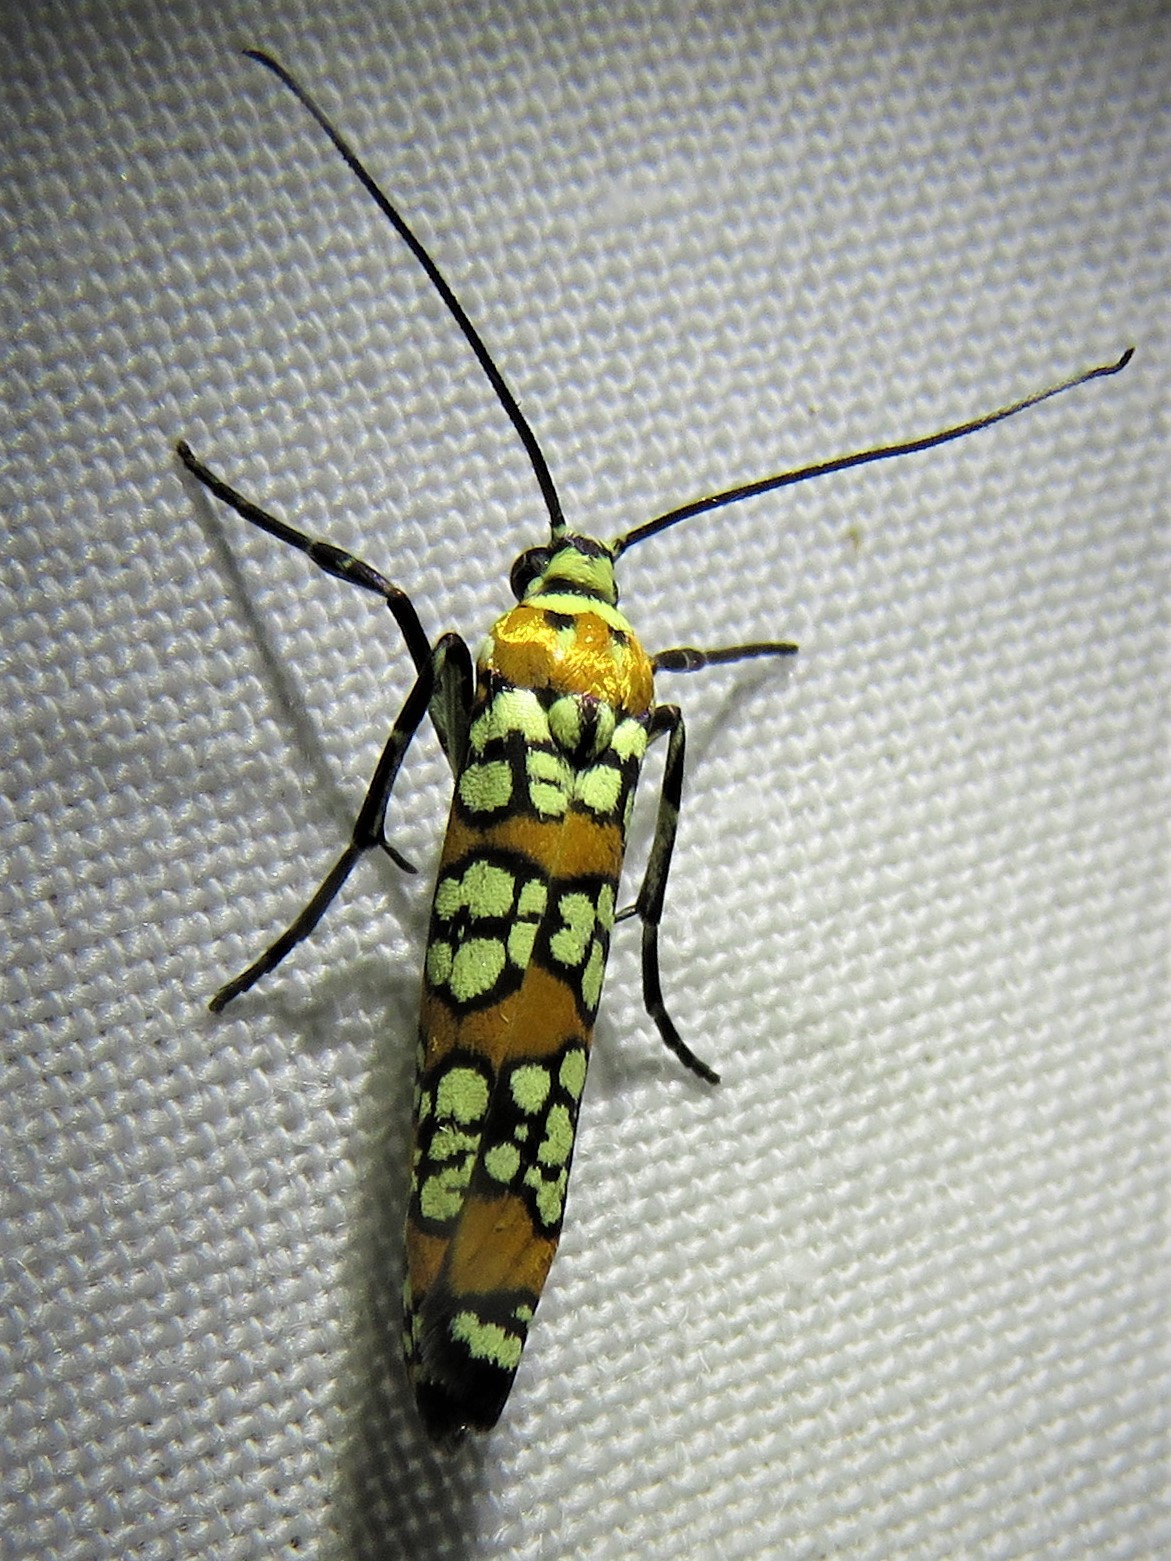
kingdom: Animalia
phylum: Arthropoda
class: Insecta
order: Lepidoptera
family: Attevidae
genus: Atteva
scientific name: Atteva punctella
